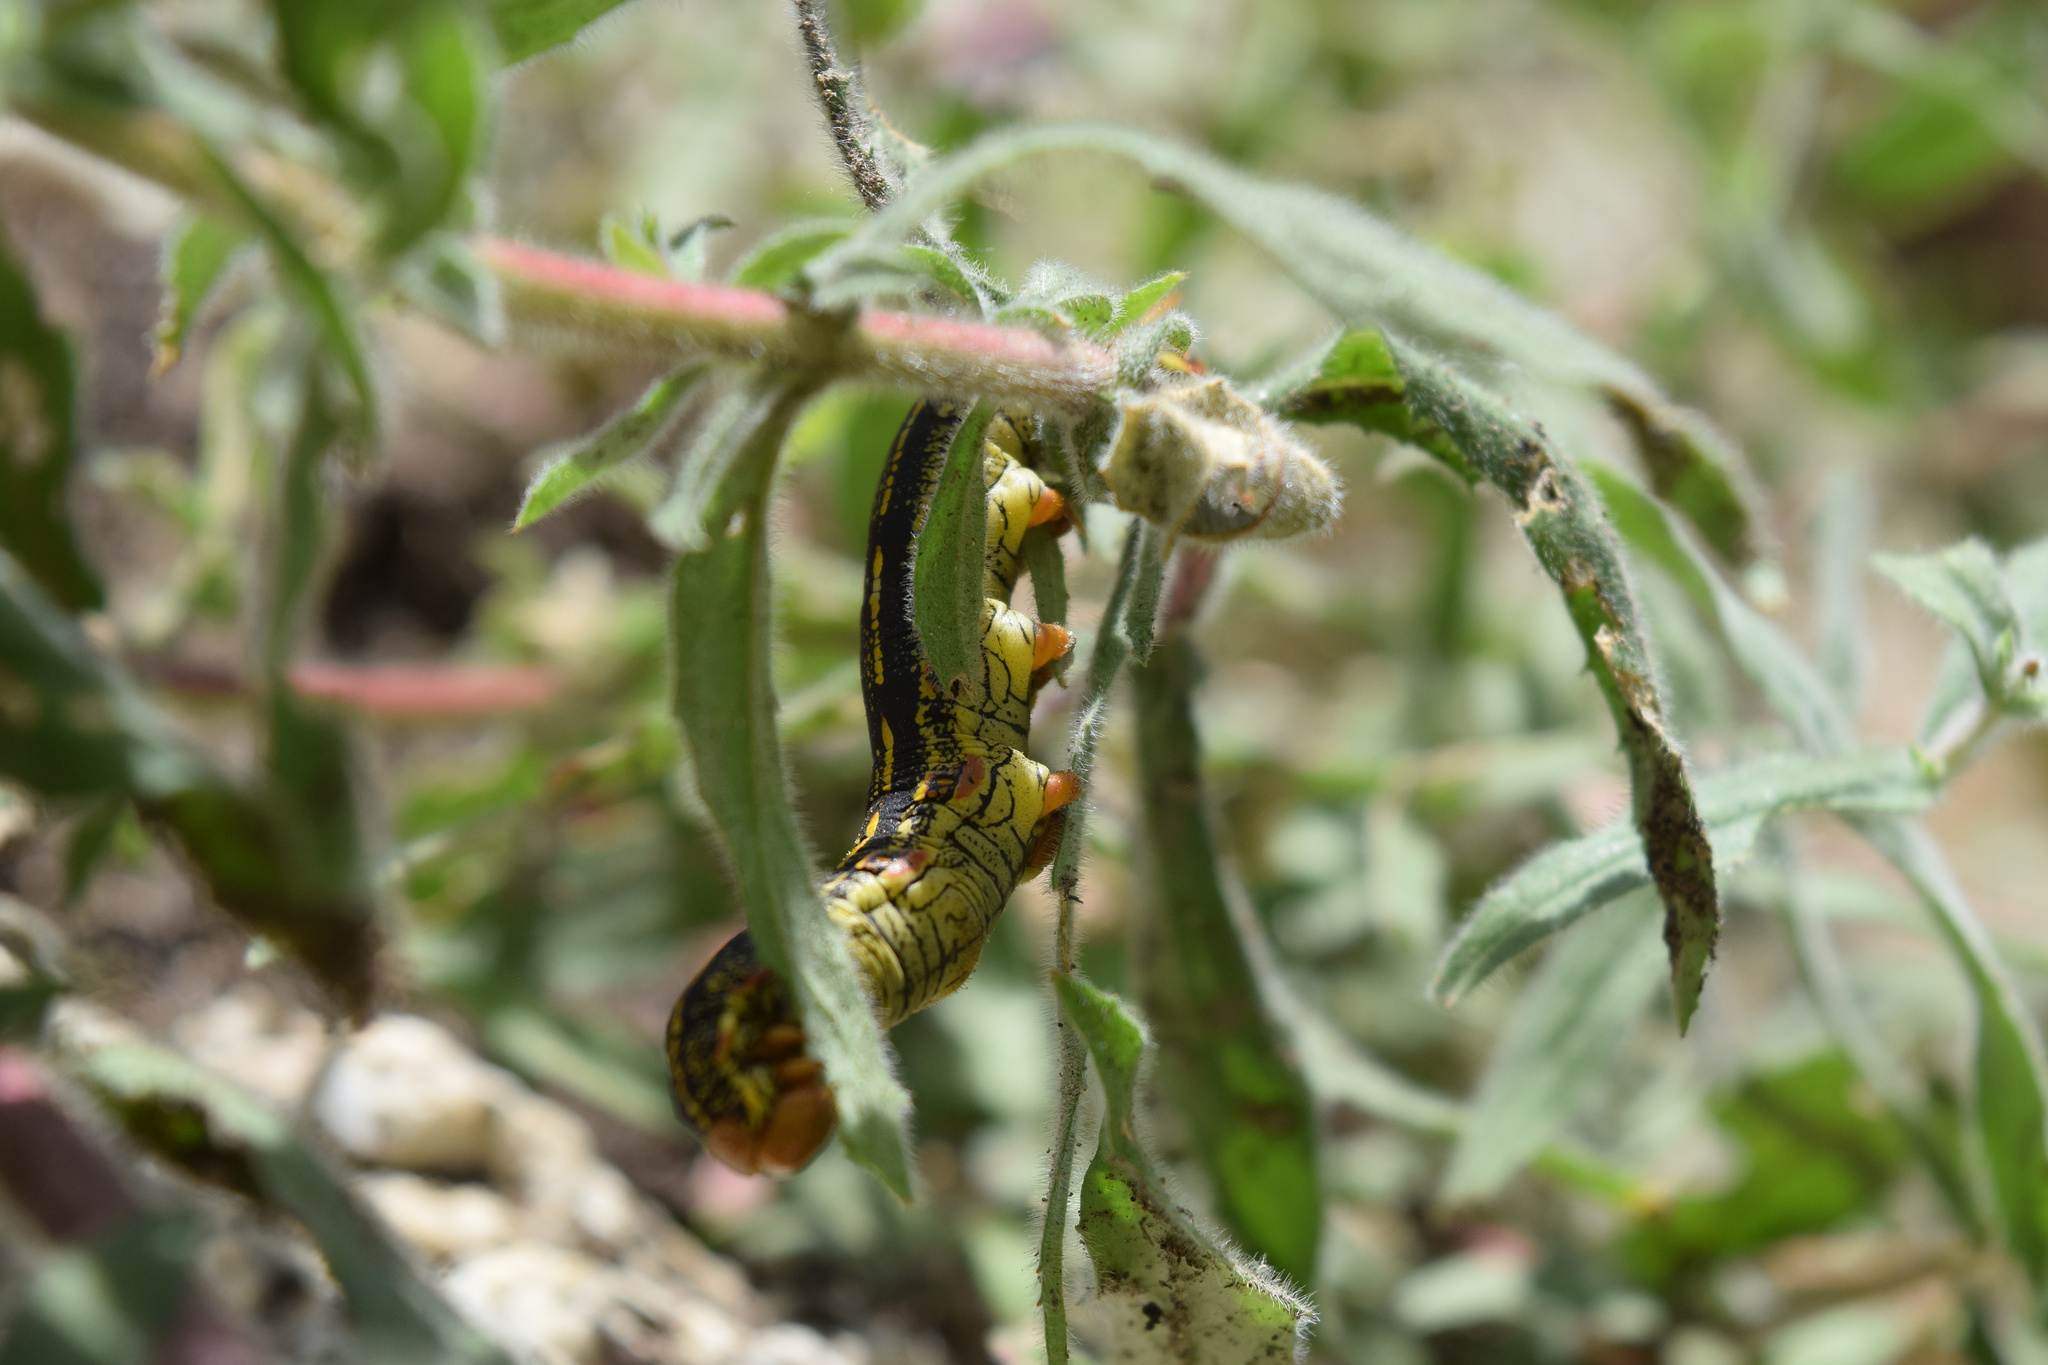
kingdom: Animalia
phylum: Arthropoda
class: Insecta
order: Lepidoptera
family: Sphingidae
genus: Hyles
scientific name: Hyles lineata
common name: White-lined sphinx
